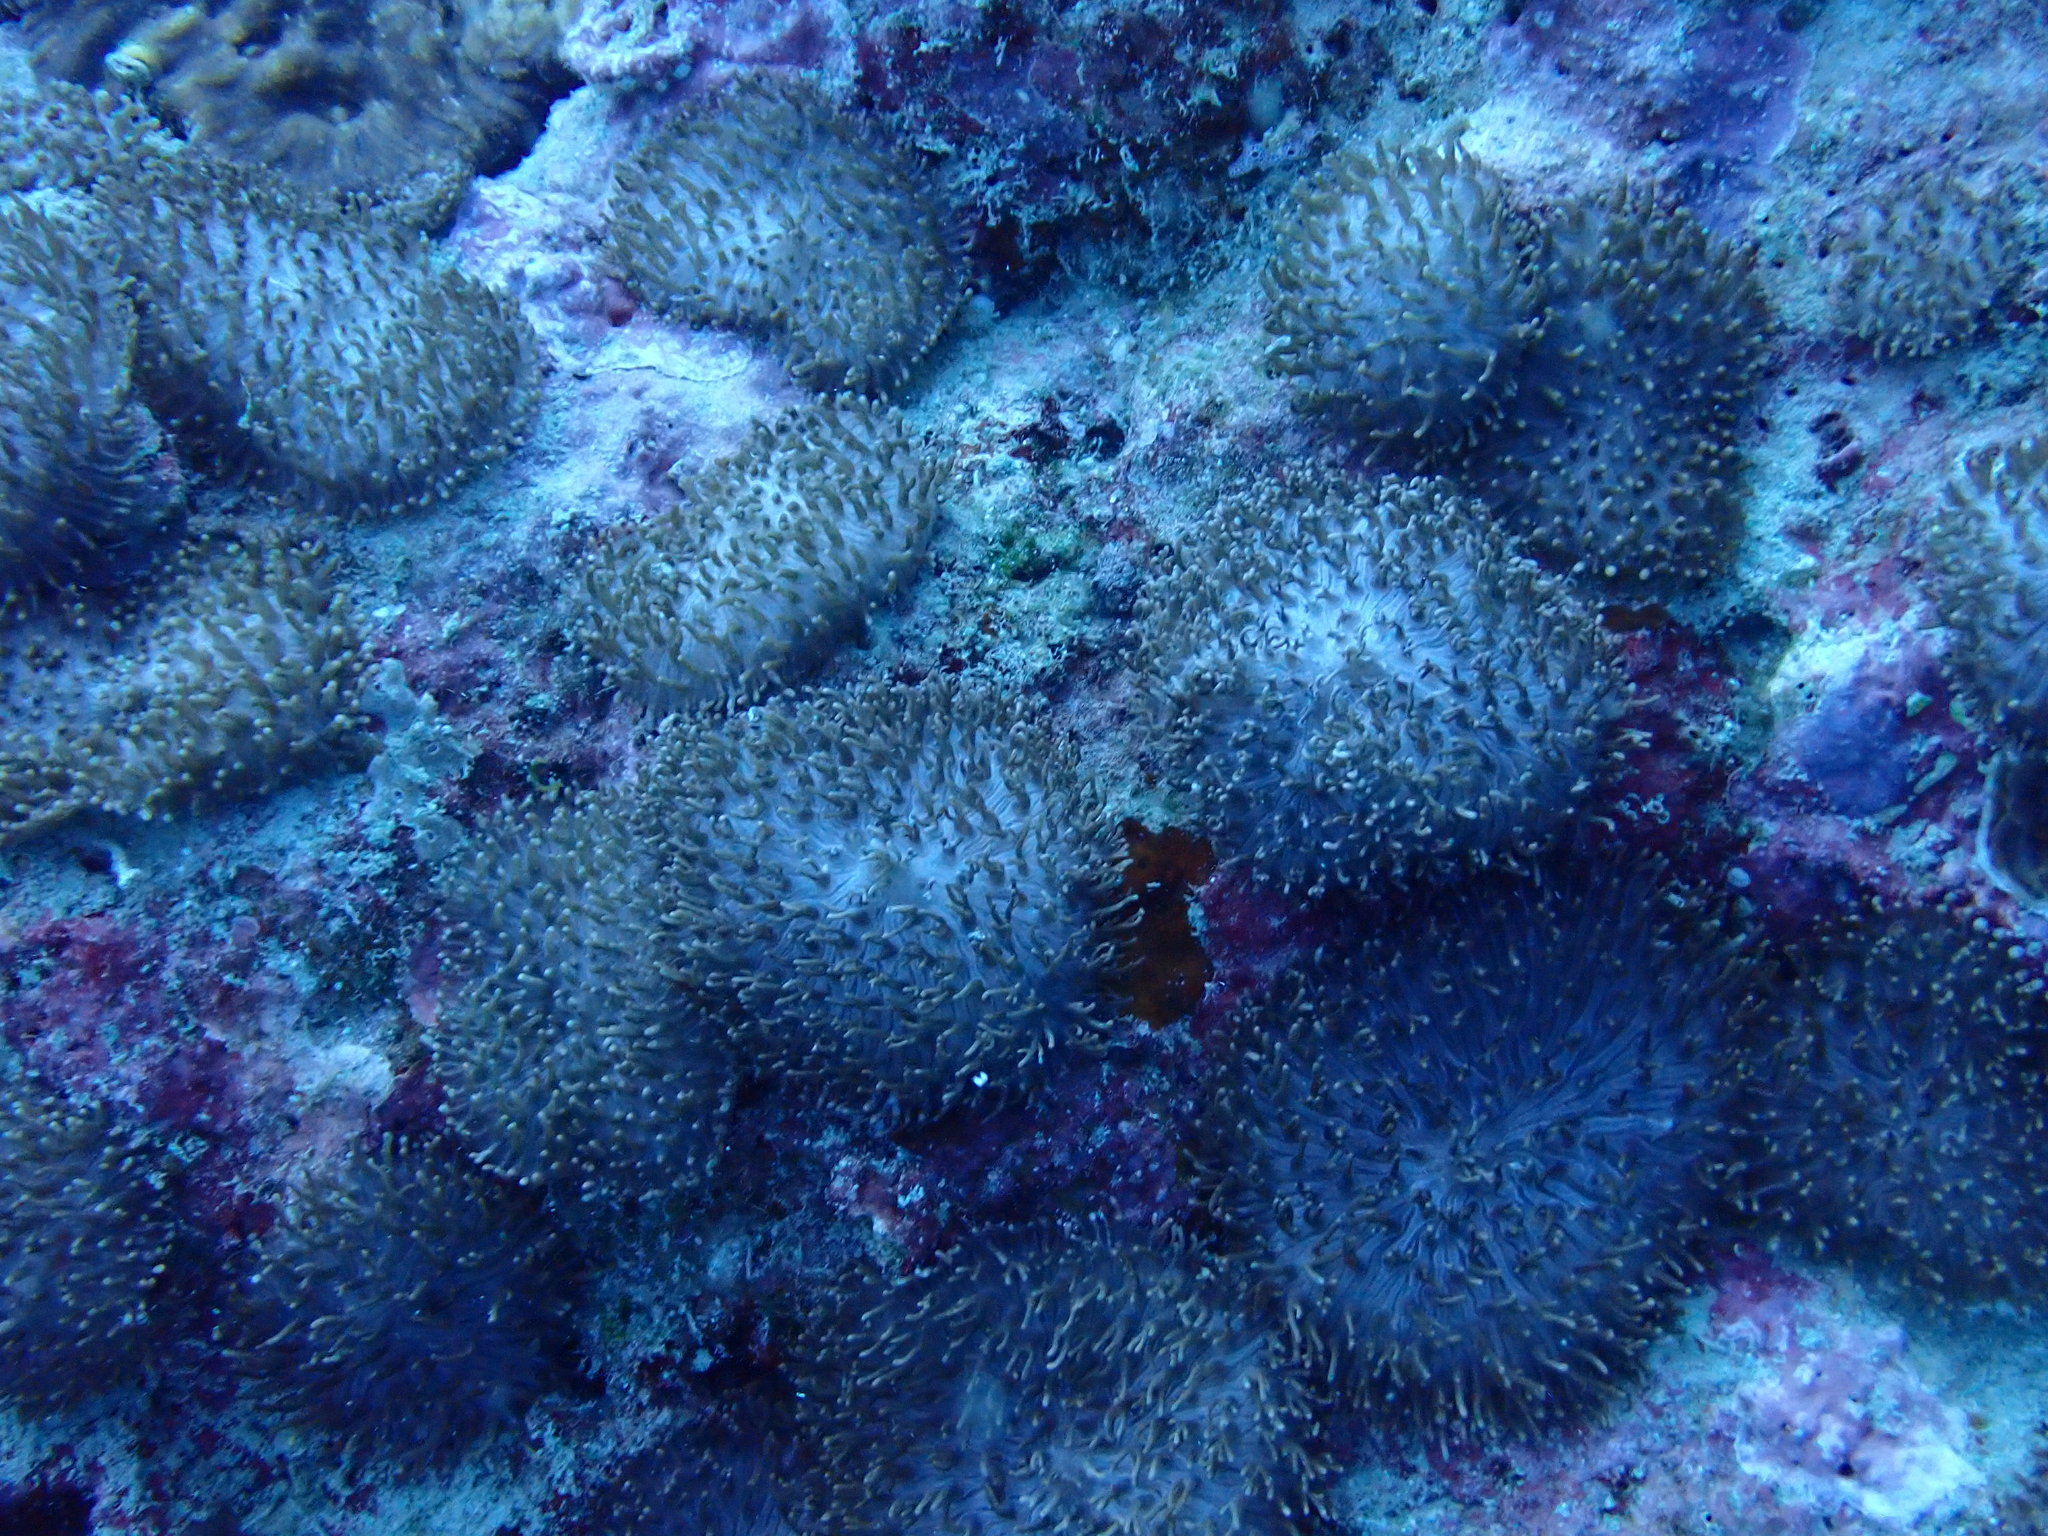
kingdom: Animalia
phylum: Cnidaria
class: Anthozoa
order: Corallimorpharia
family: Discosomidae
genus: Rhodactis
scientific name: Rhodactis rhodostoma
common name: Red-mouth mushroom anemone
